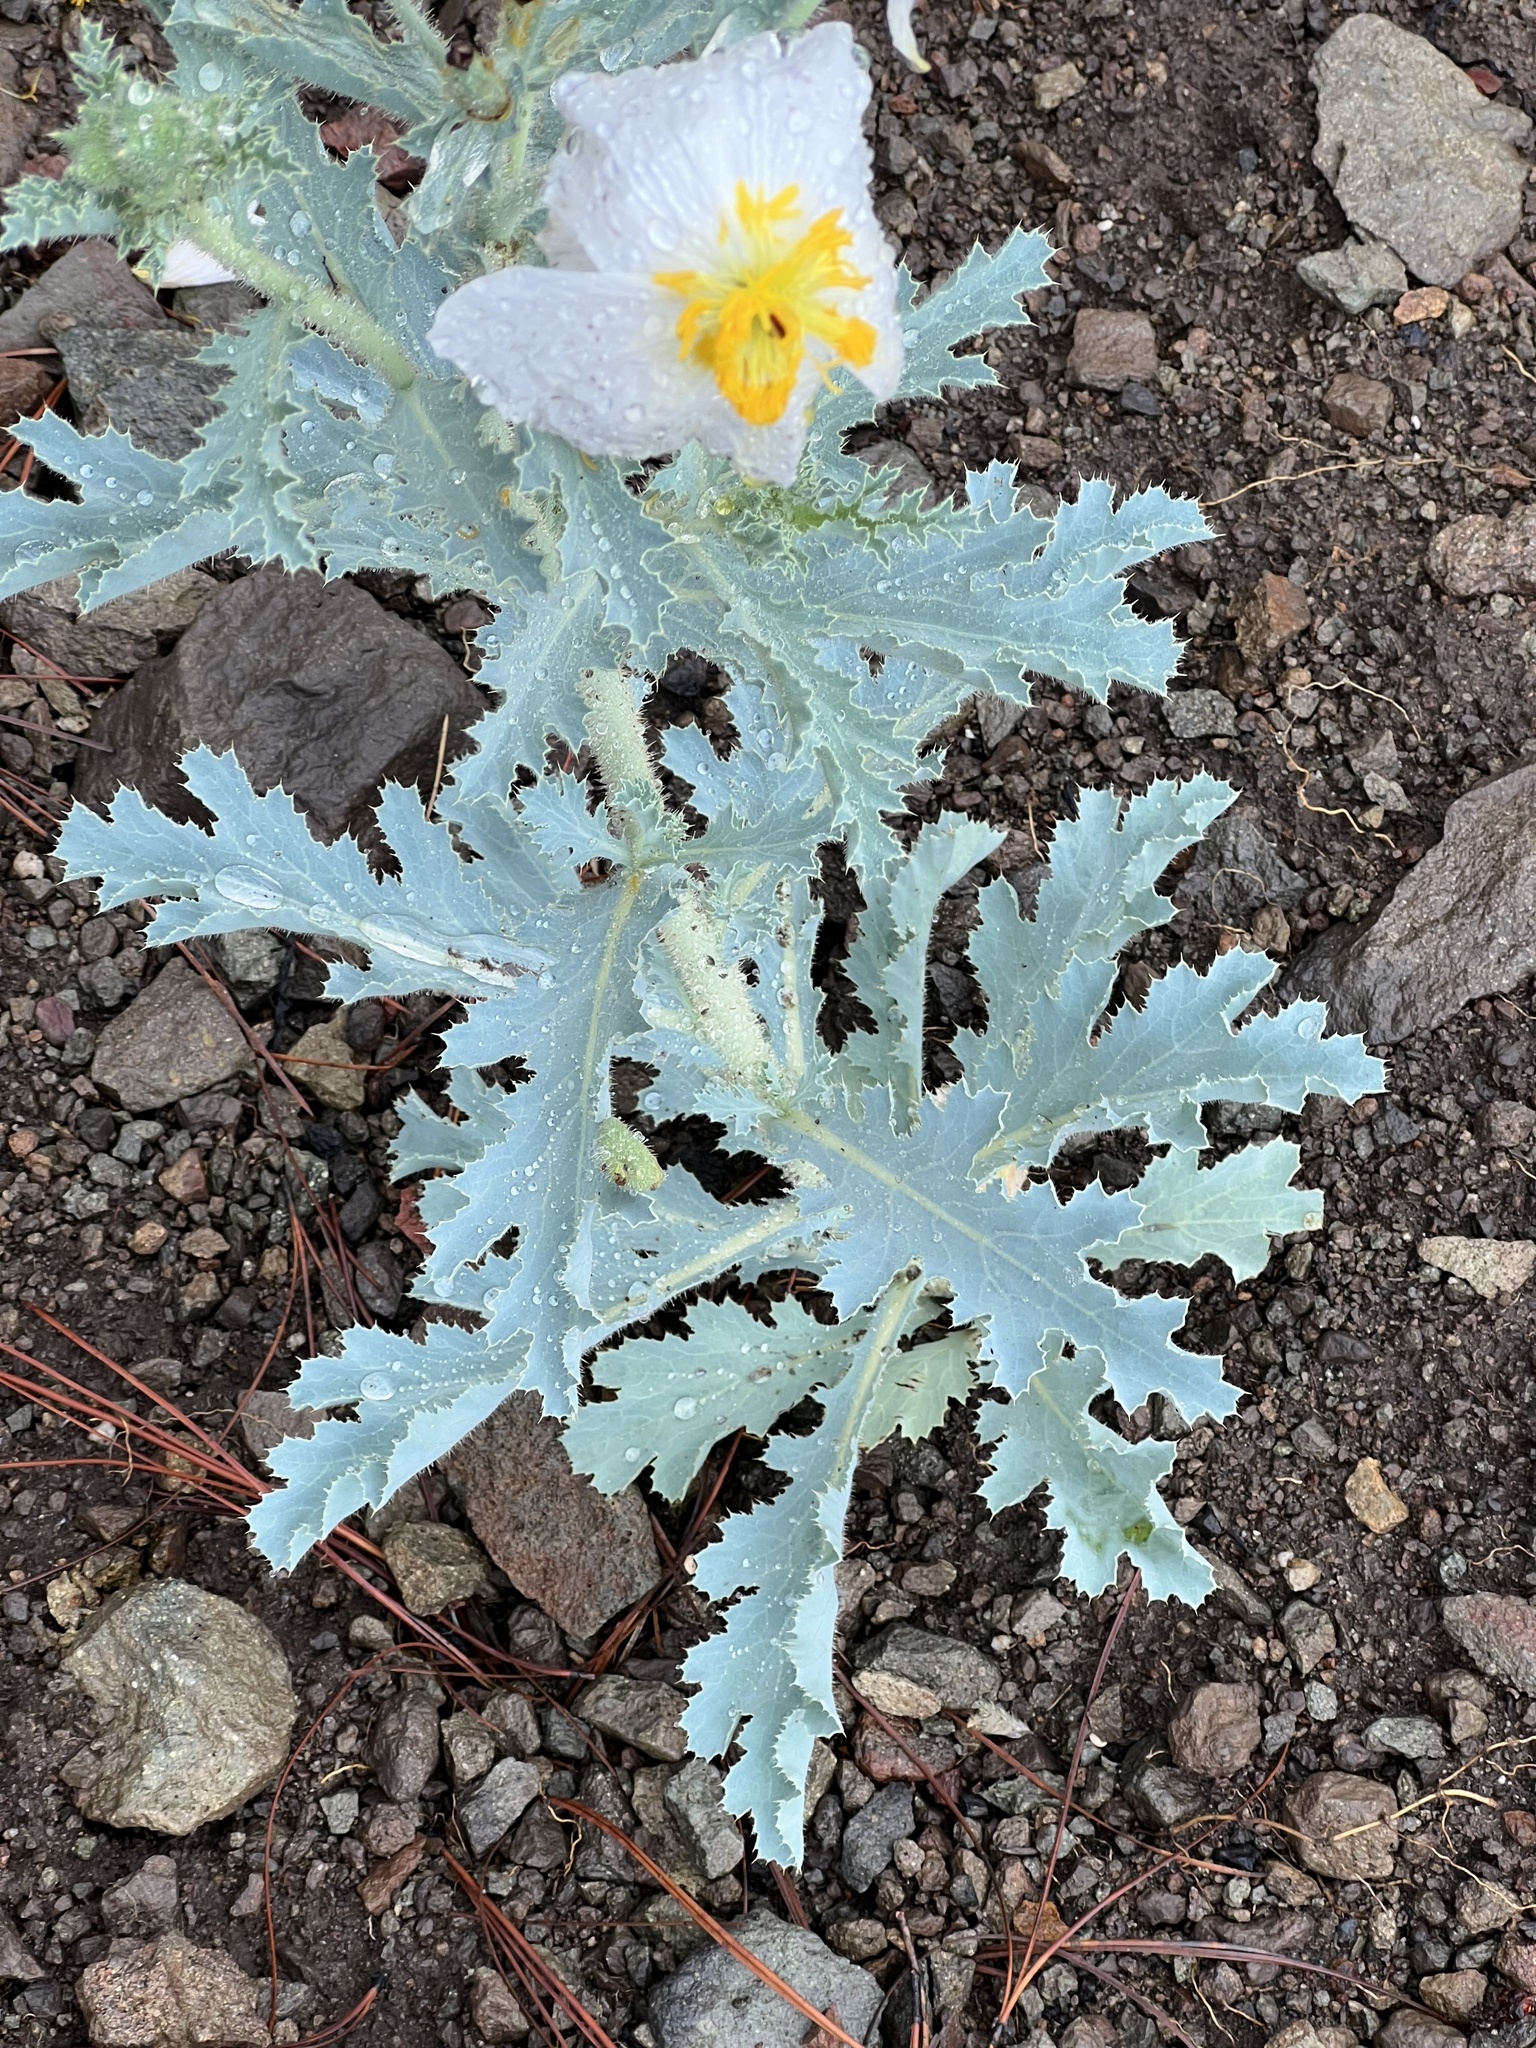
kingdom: Plantae
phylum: Tracheophyta
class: Magnoliopsida
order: Ranunculales
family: Papaveraceae
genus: Argemone
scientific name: Argemone munita
